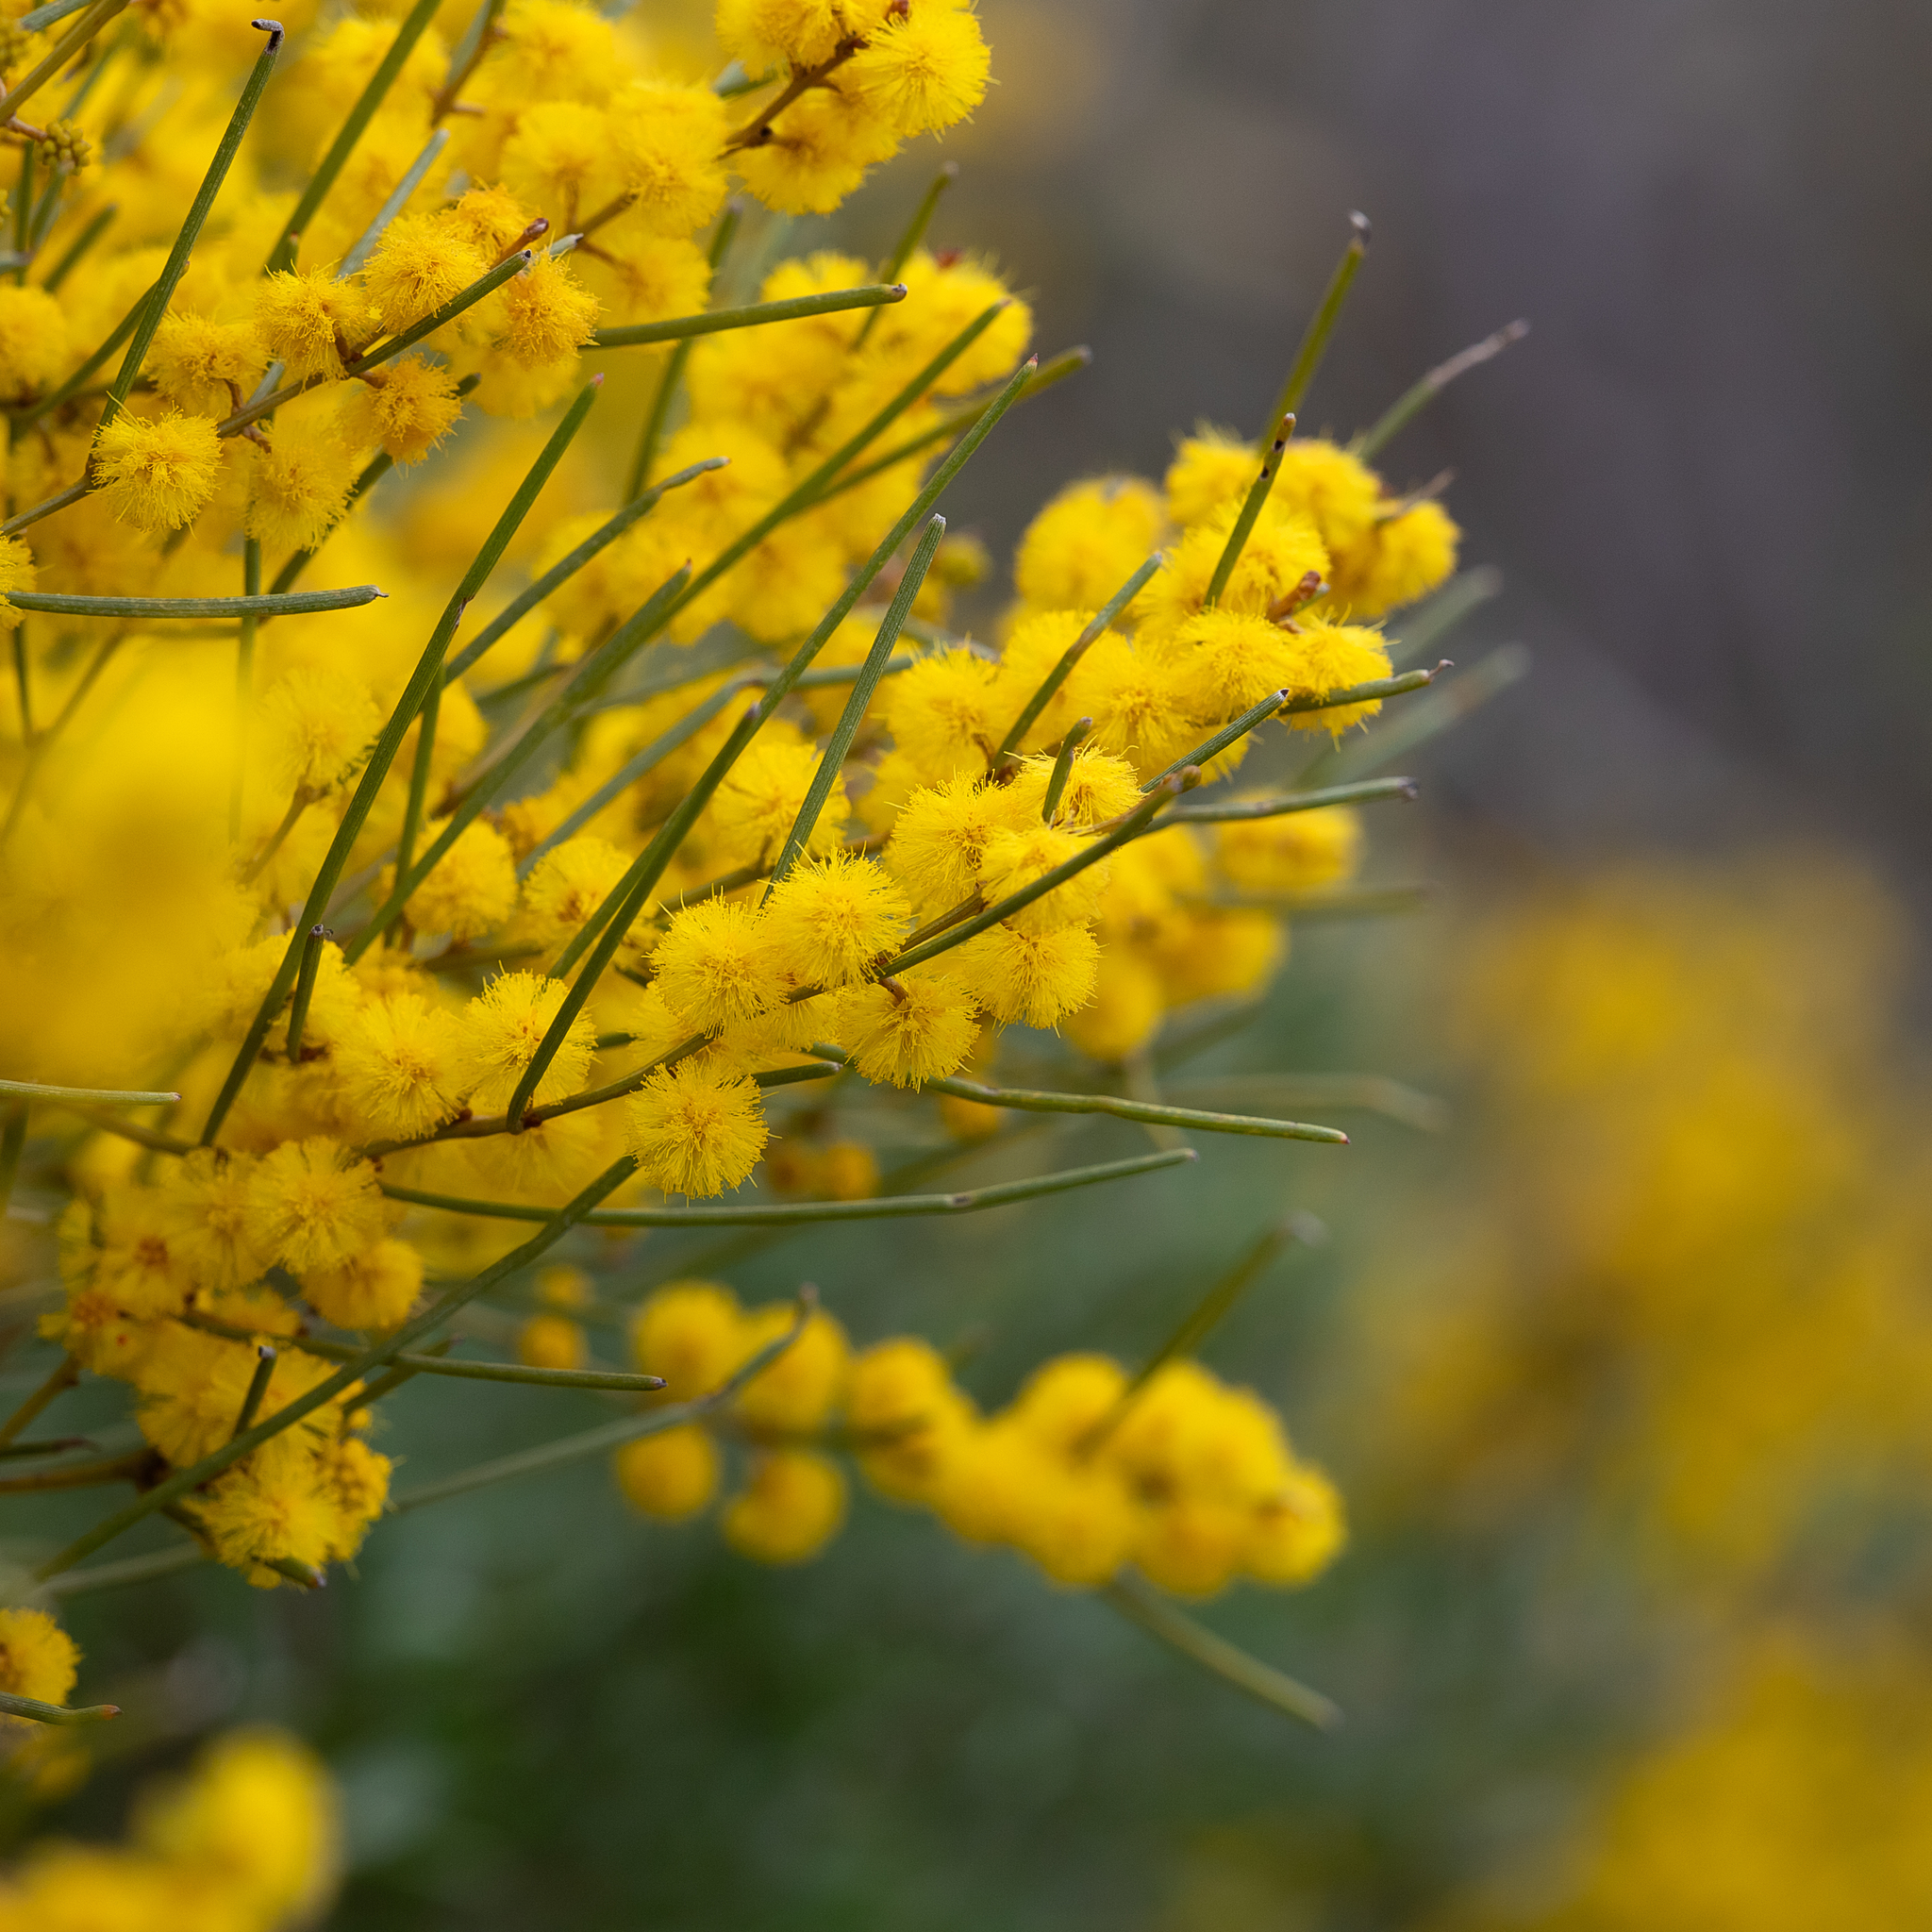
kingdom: Plantae
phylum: Tracheophyta
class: Magnoliopsida
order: Fabales
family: Fabaceae
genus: Acacia
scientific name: Acacia rigens
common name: Nealie
